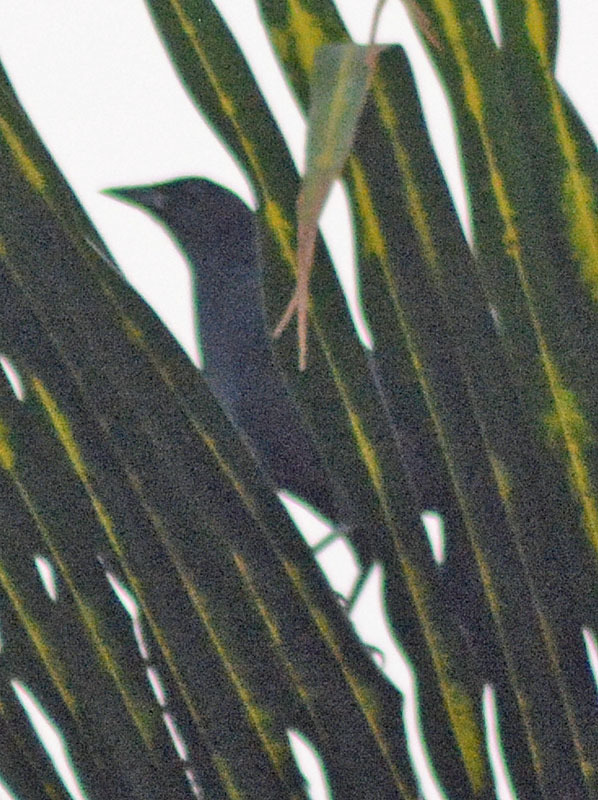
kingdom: Animalia
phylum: Chordata
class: Aves
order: Passeriformes
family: Icteridae
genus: Dives
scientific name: Dives dives
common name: Melodious blackbird
